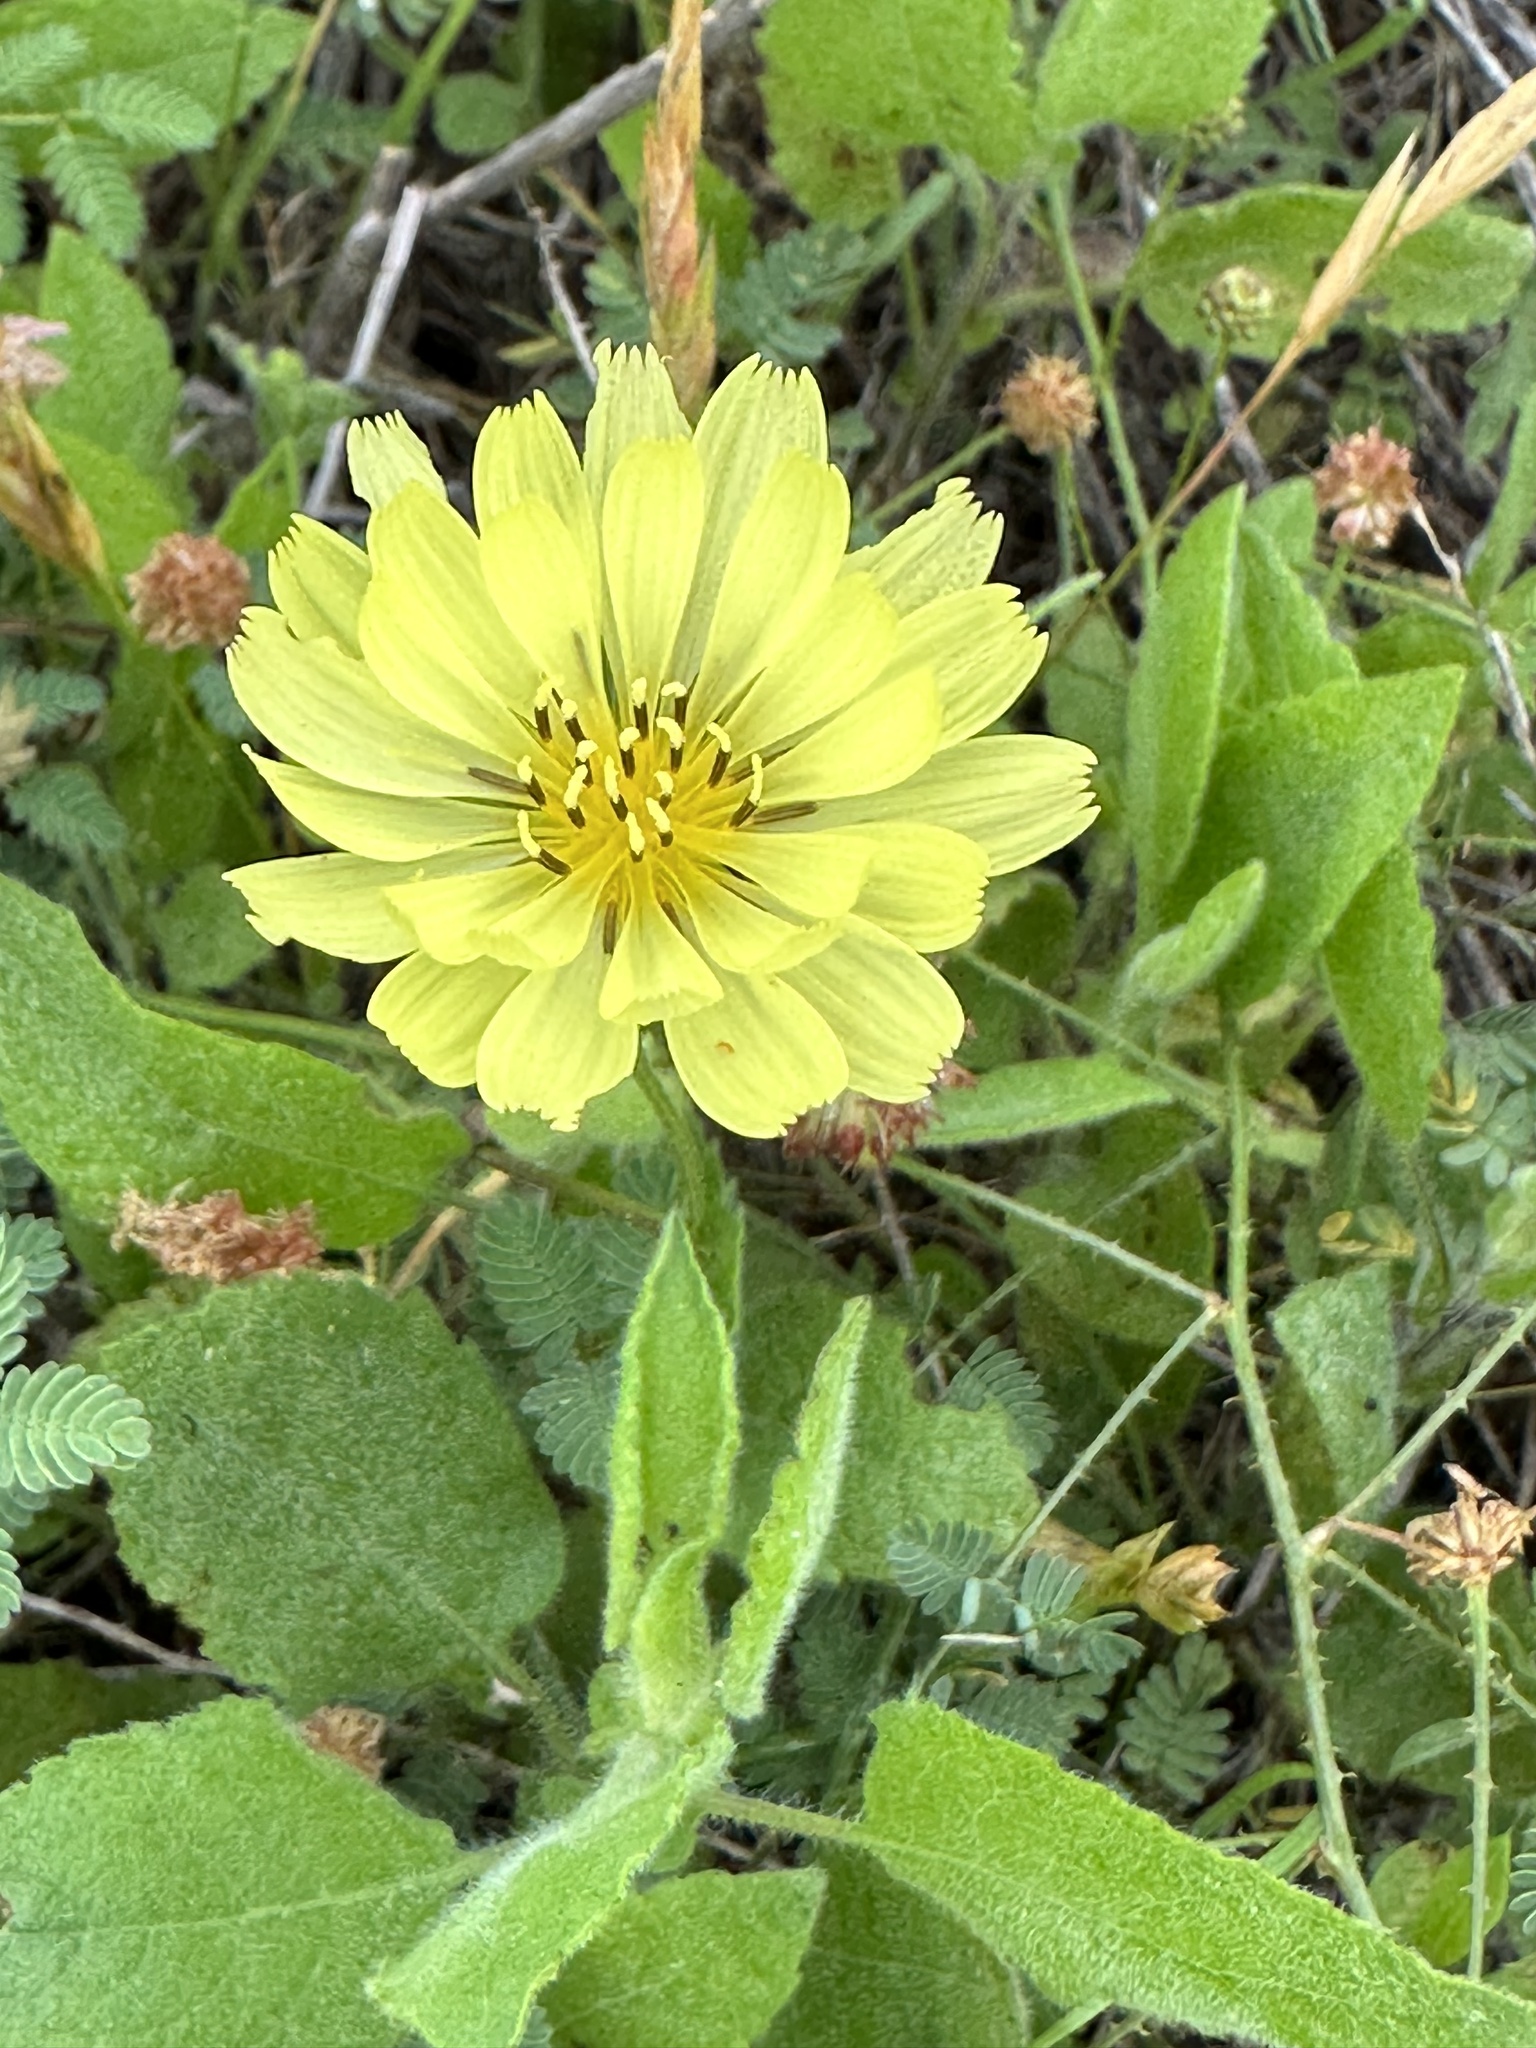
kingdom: Plantae
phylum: Tracheophyta
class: Magnoliopsida
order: Asterales
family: Asteraceae
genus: Pyrrhopappus
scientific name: Pyrrhopappus pauciflorus
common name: Texas false dandelion
